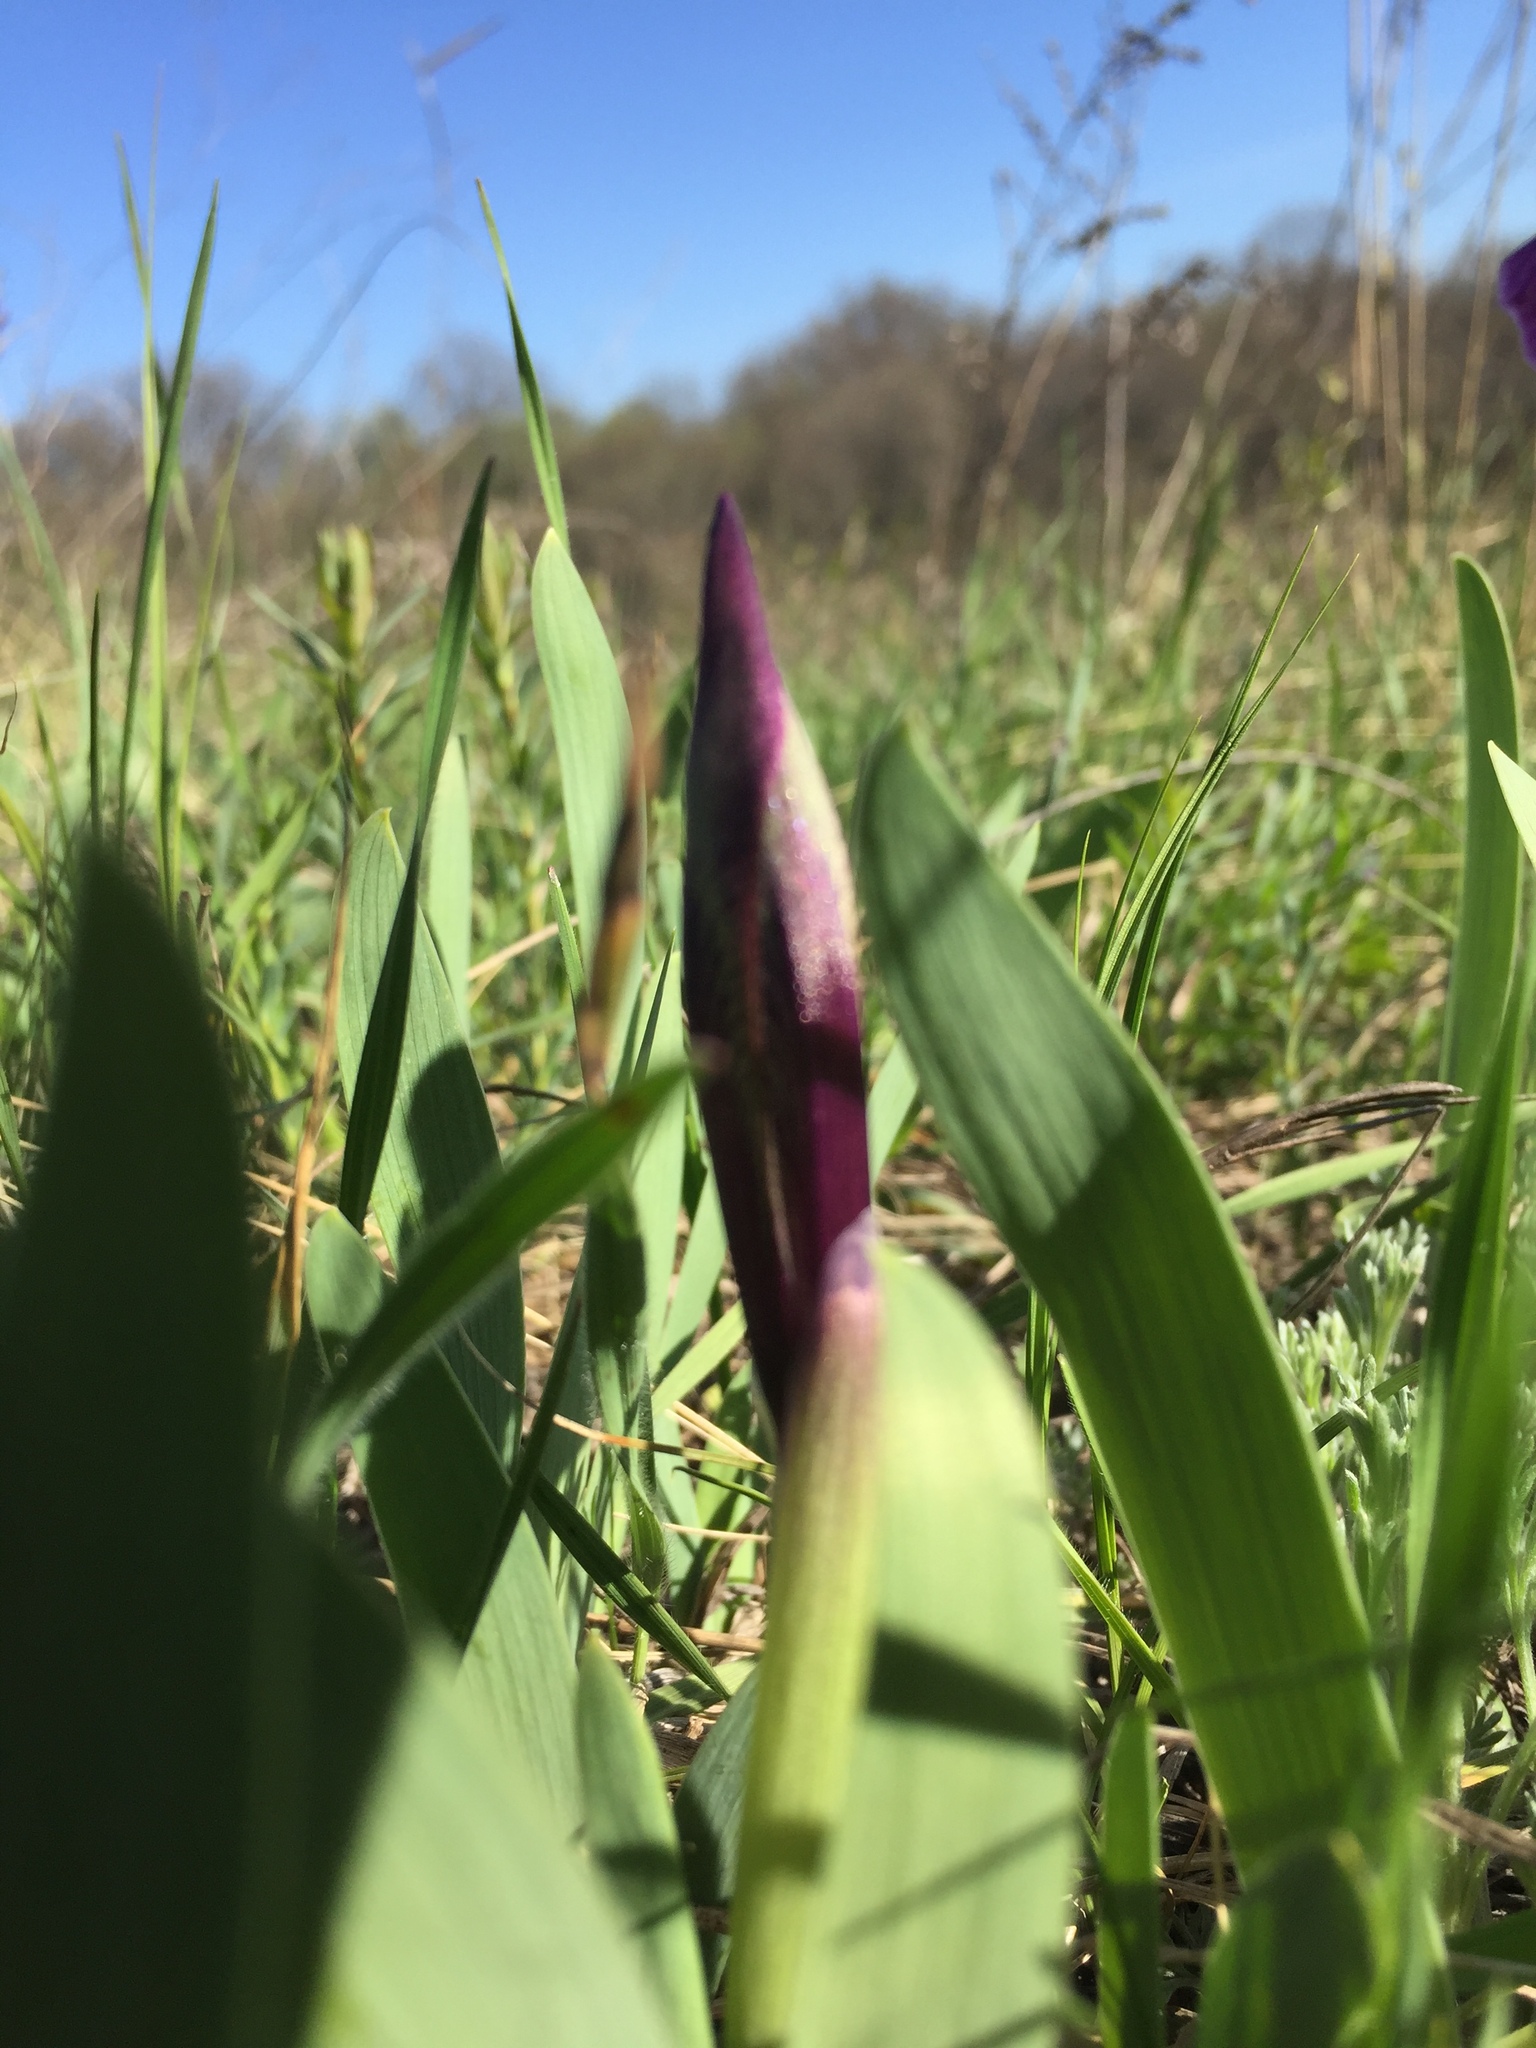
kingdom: Plantae
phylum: Tracheophyta
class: Liliopsida
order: Asparagales
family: Iridaceae
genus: Iris
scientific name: Iris pumila
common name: Dwarf iris
